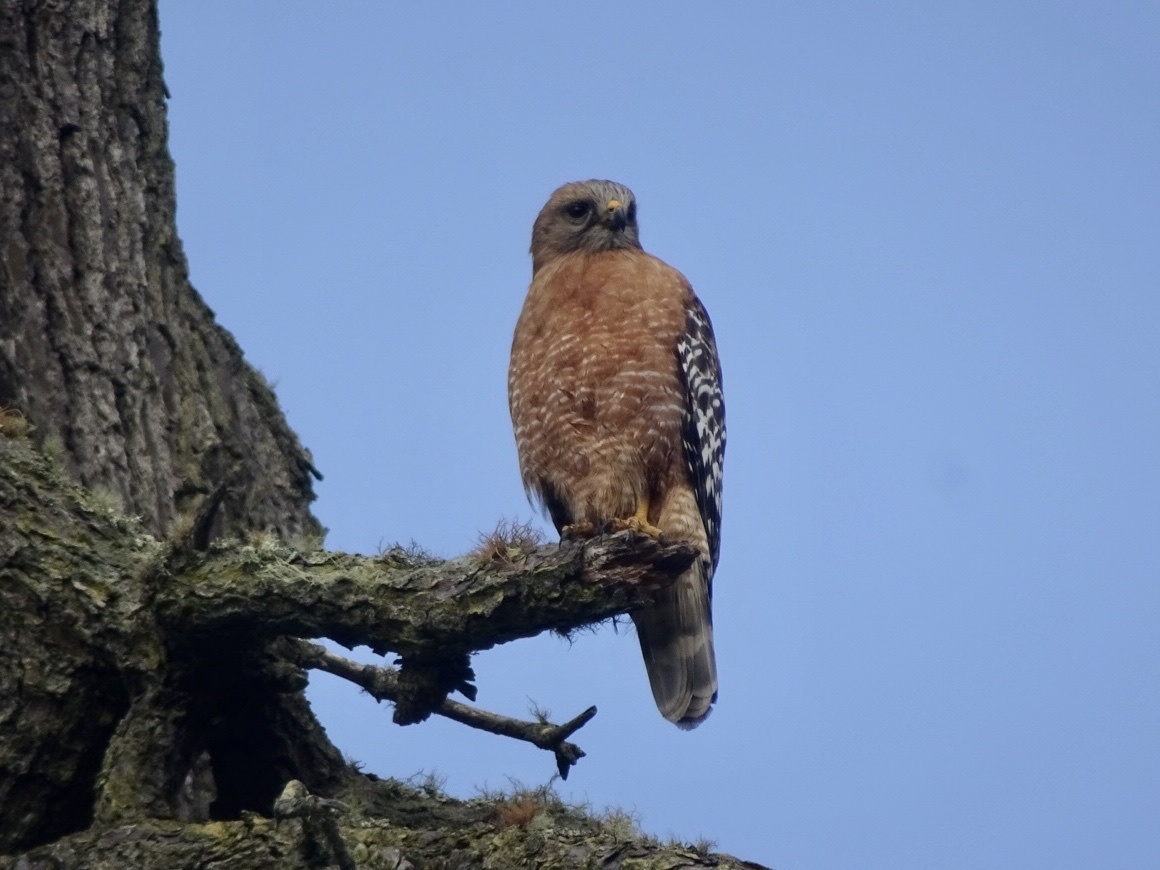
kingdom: Animalia
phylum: Chordata
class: Aves
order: Accipitriformes
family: Accipitridae
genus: Buteo
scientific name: Buteo lineatus
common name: Red-shouldered hawk
